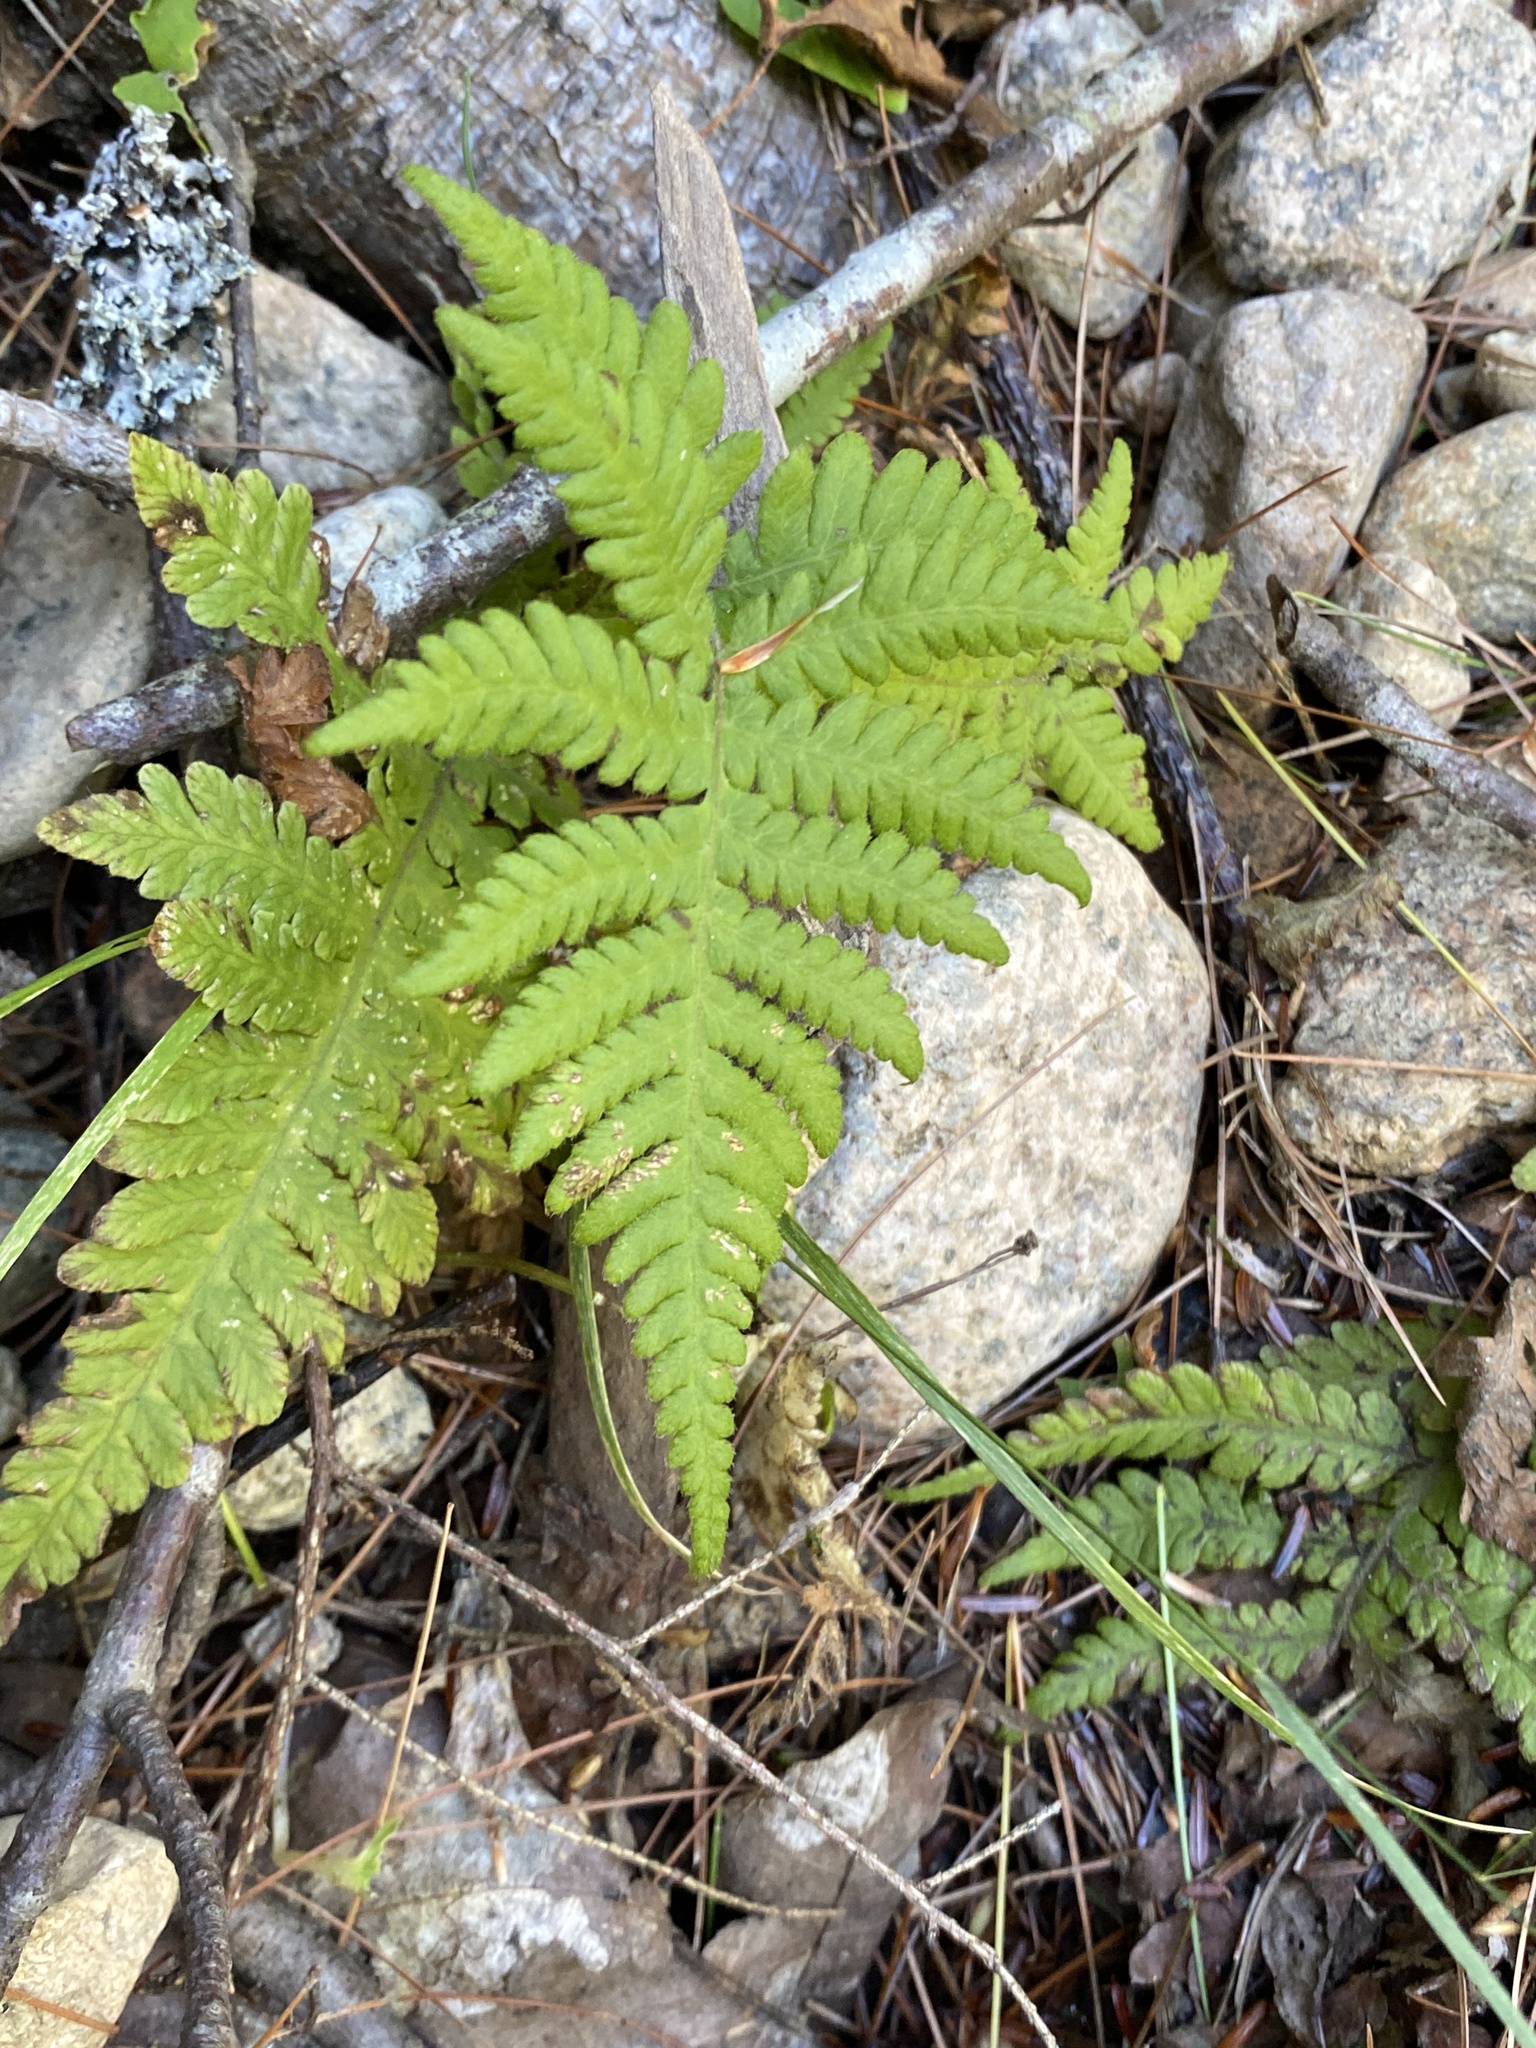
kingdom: Plantae
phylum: Tracheophyta
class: Polypodiopsida
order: Polypodiales
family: Thelypteridaceae
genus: Phegopteris
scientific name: Phegopteris connectilis
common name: Beech fern
